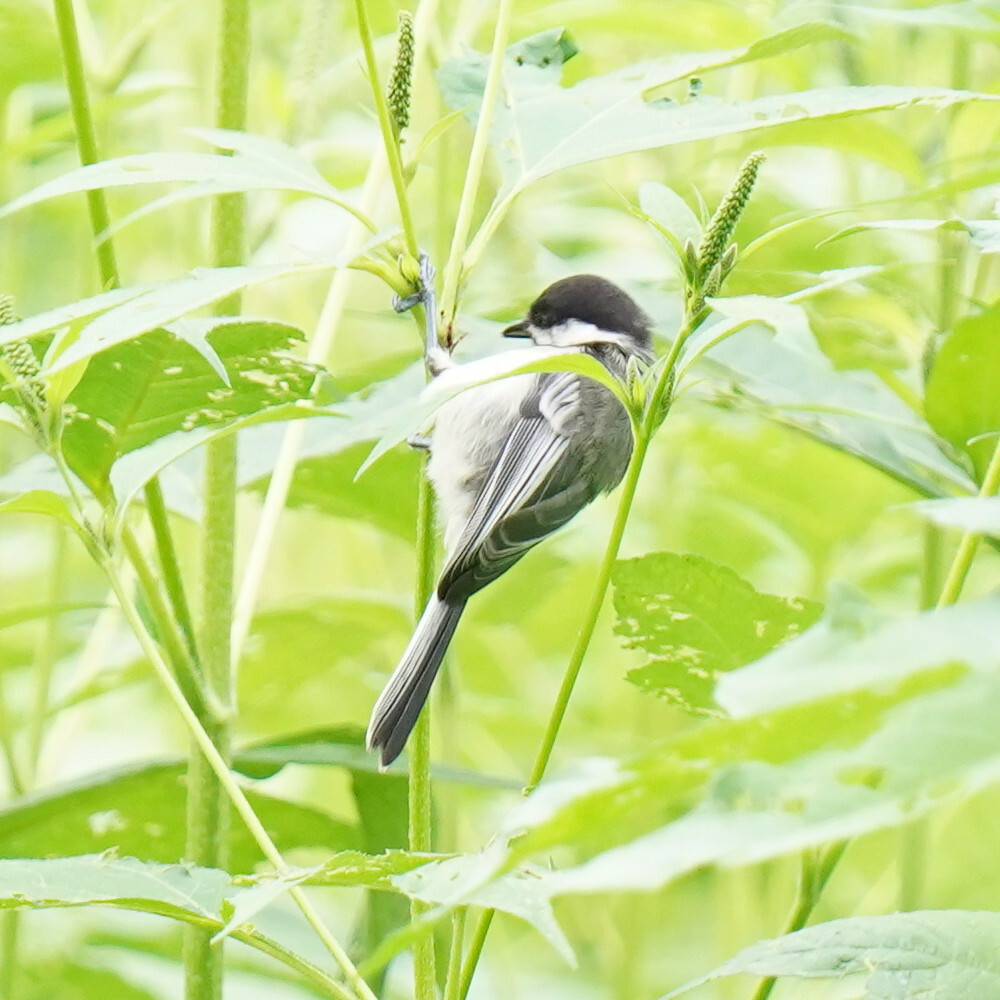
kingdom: Animalia
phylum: Chordata
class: Aves
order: Passeriformes
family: Paridae
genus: Poecile
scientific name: Poecile atricapillus
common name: Black-capped chickadee
